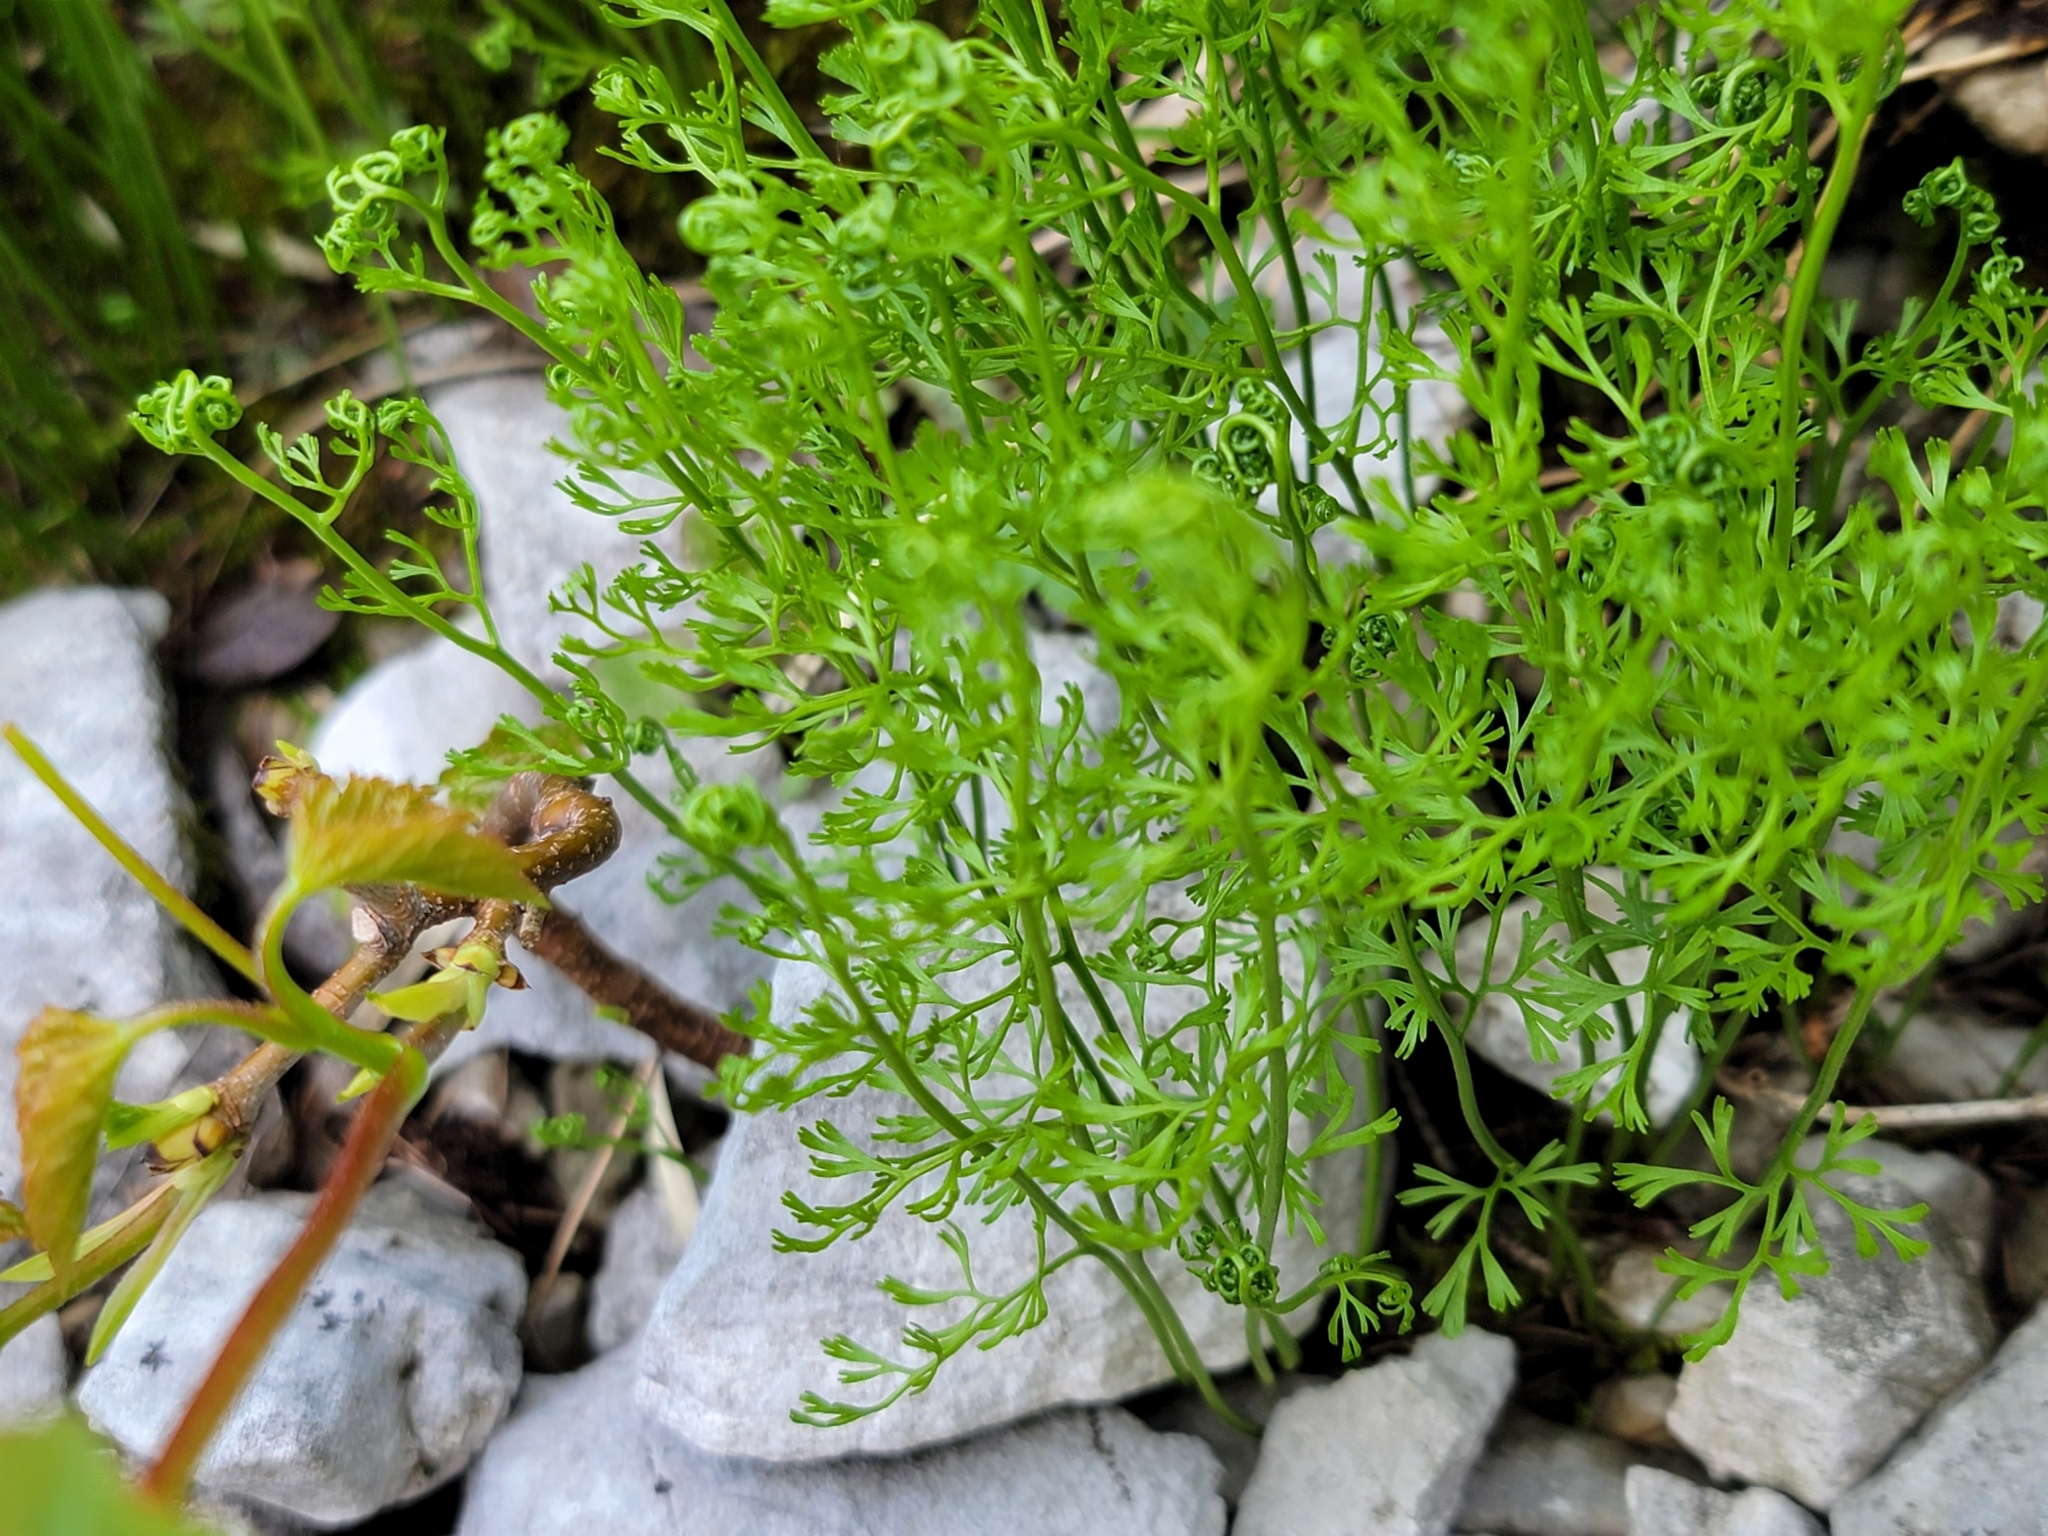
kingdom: Plantae
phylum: Tracheophyta
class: Polypodiopsida
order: Polypodiales
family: Pteridaceae
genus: Cryptogramma
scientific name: Cryptogramma crispa
